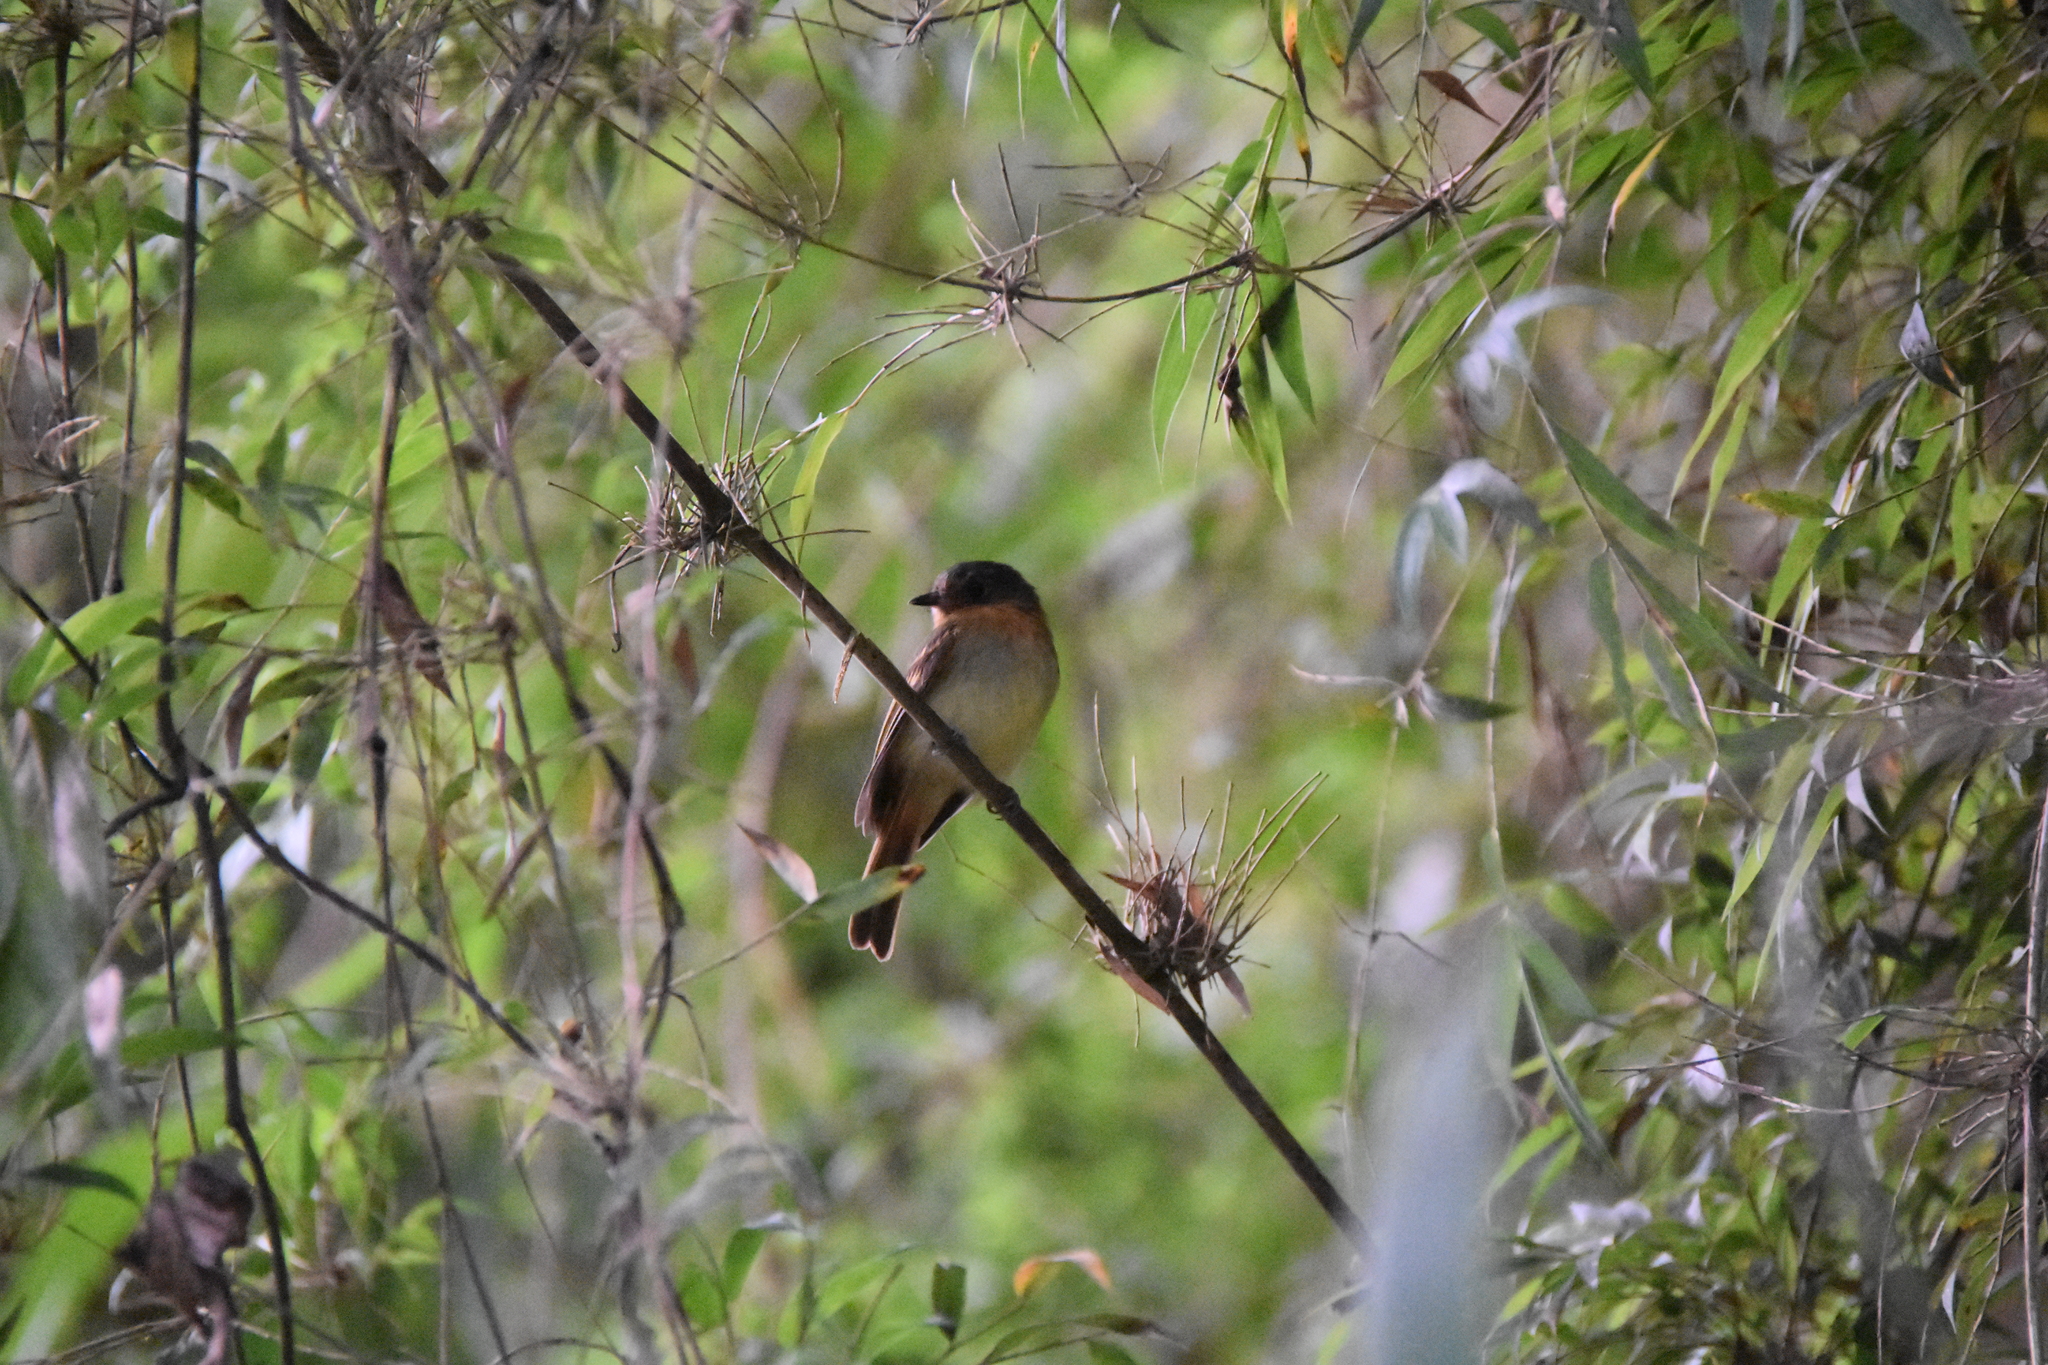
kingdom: Animalia
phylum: Chordata
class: Aves
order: Passeriformes
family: Tyrannidae
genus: Leptopogon
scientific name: Leptopogon rufipectus
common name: Rufous-breasted flycatcher
